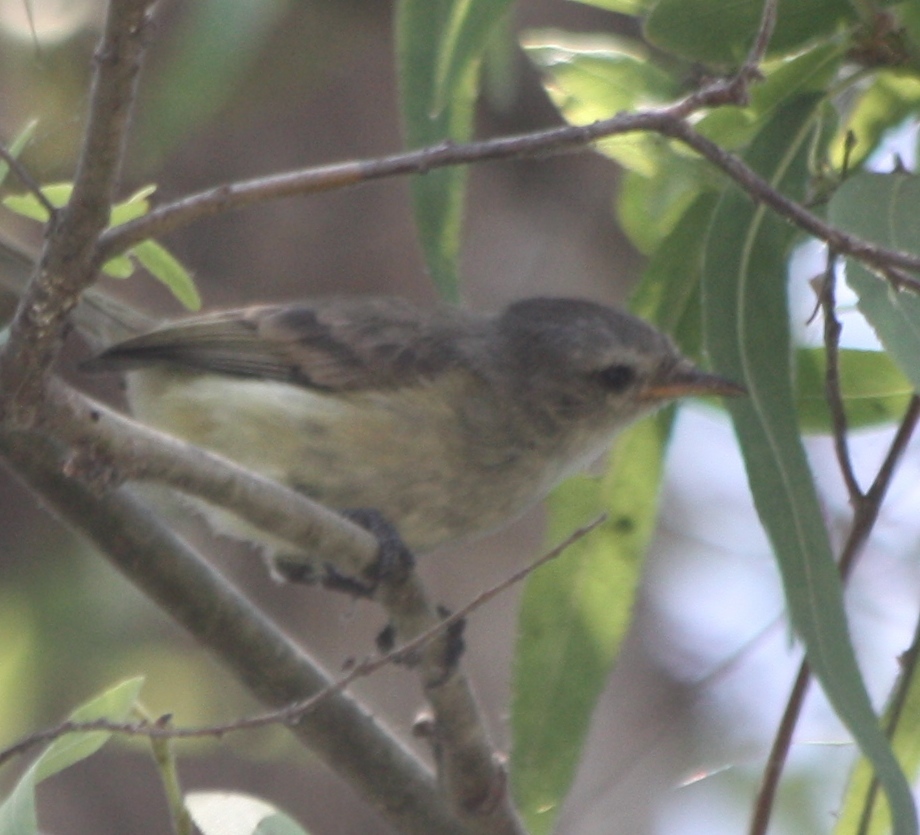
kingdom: Animalia
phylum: Chordata
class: Aves
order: Passeriformes
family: Tyrannidae
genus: Camptostoma
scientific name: Camptostoma obsoletum
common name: Southern beardless-tyrannulet
